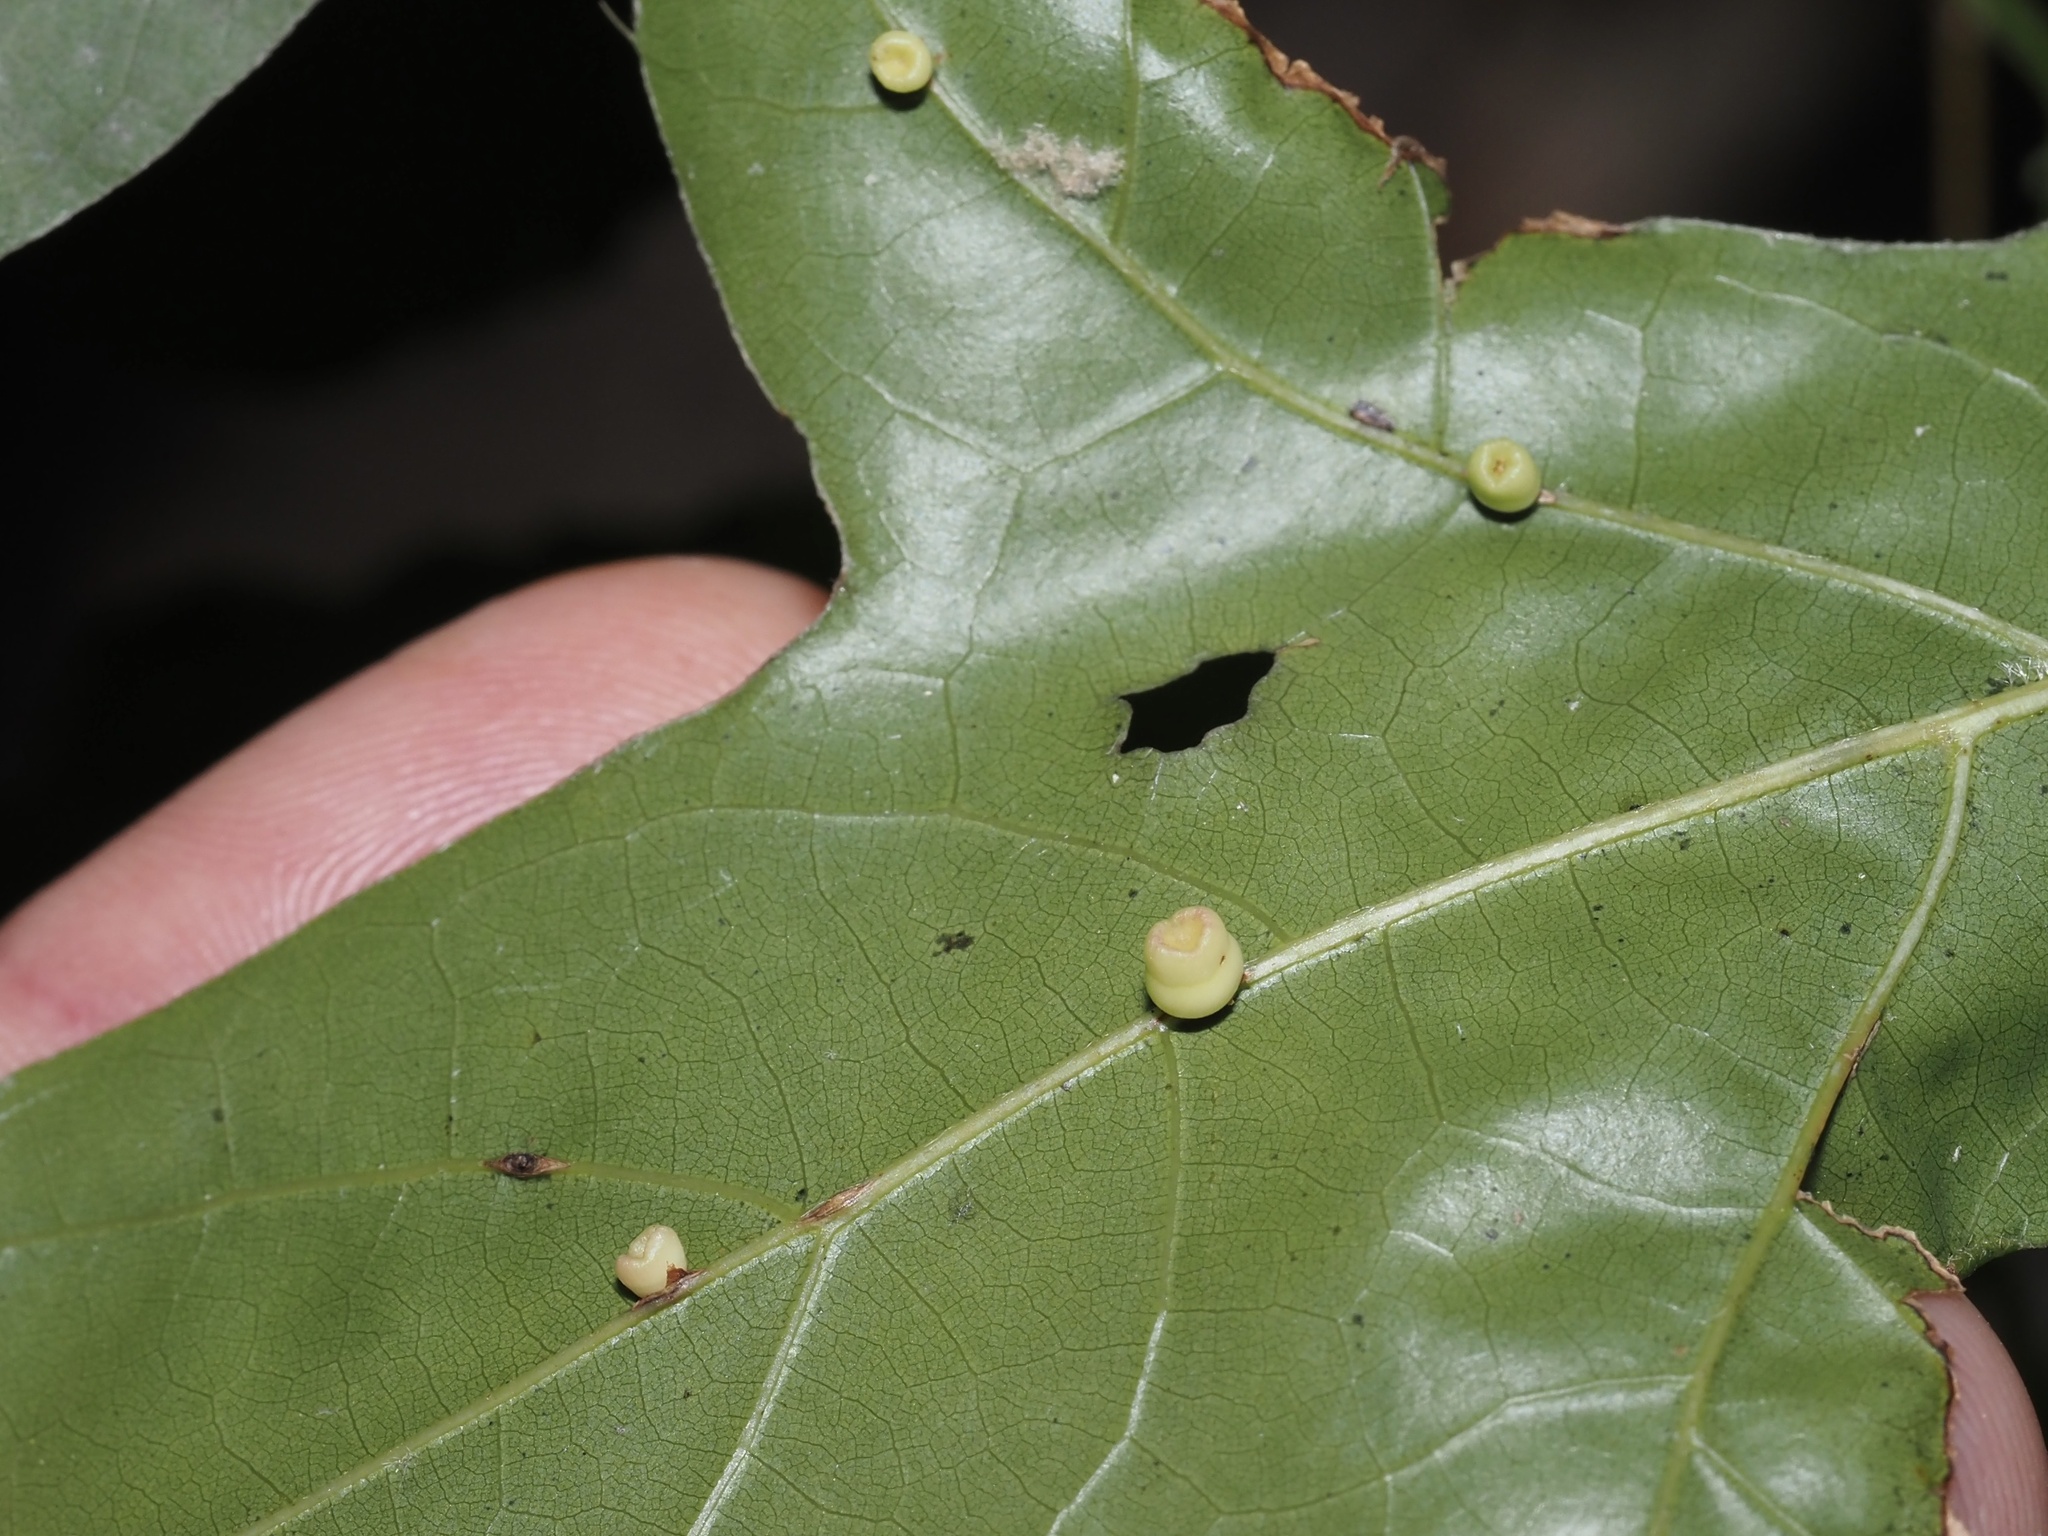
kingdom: Animalia
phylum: Arthropoda
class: Insecta
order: Hymenoptera
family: Cynipidae
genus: Kokkocynips
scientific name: Kokkocynips rileyi
